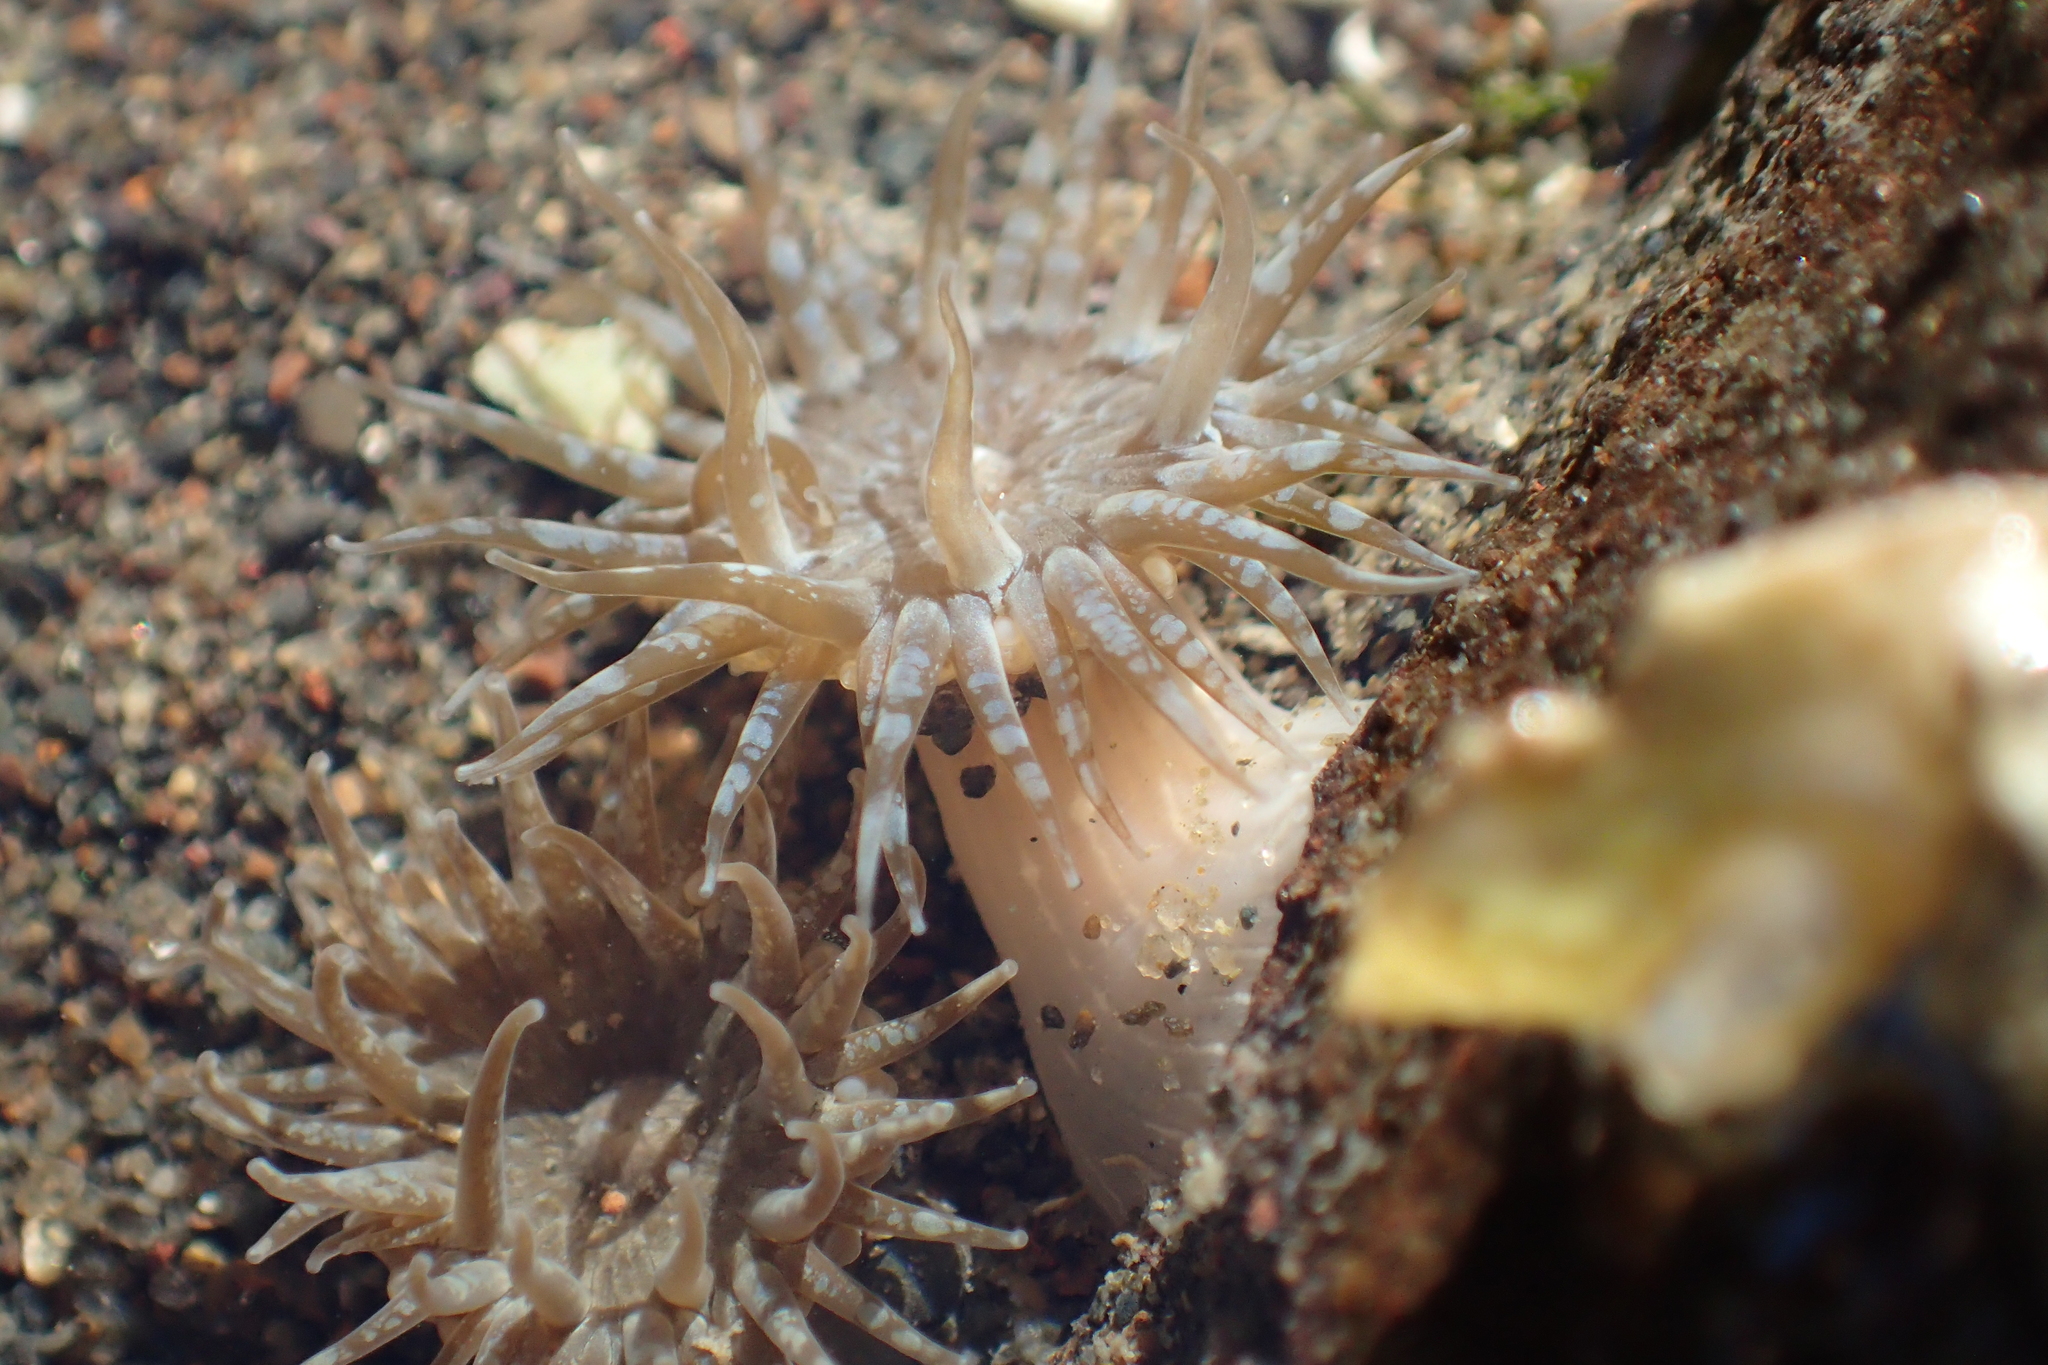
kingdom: Animalia
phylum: Cnidaria
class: Anthozoa
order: Actiniaria
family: Actiniidae
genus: Anthopleura
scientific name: Anthopleura hermaphroditica
